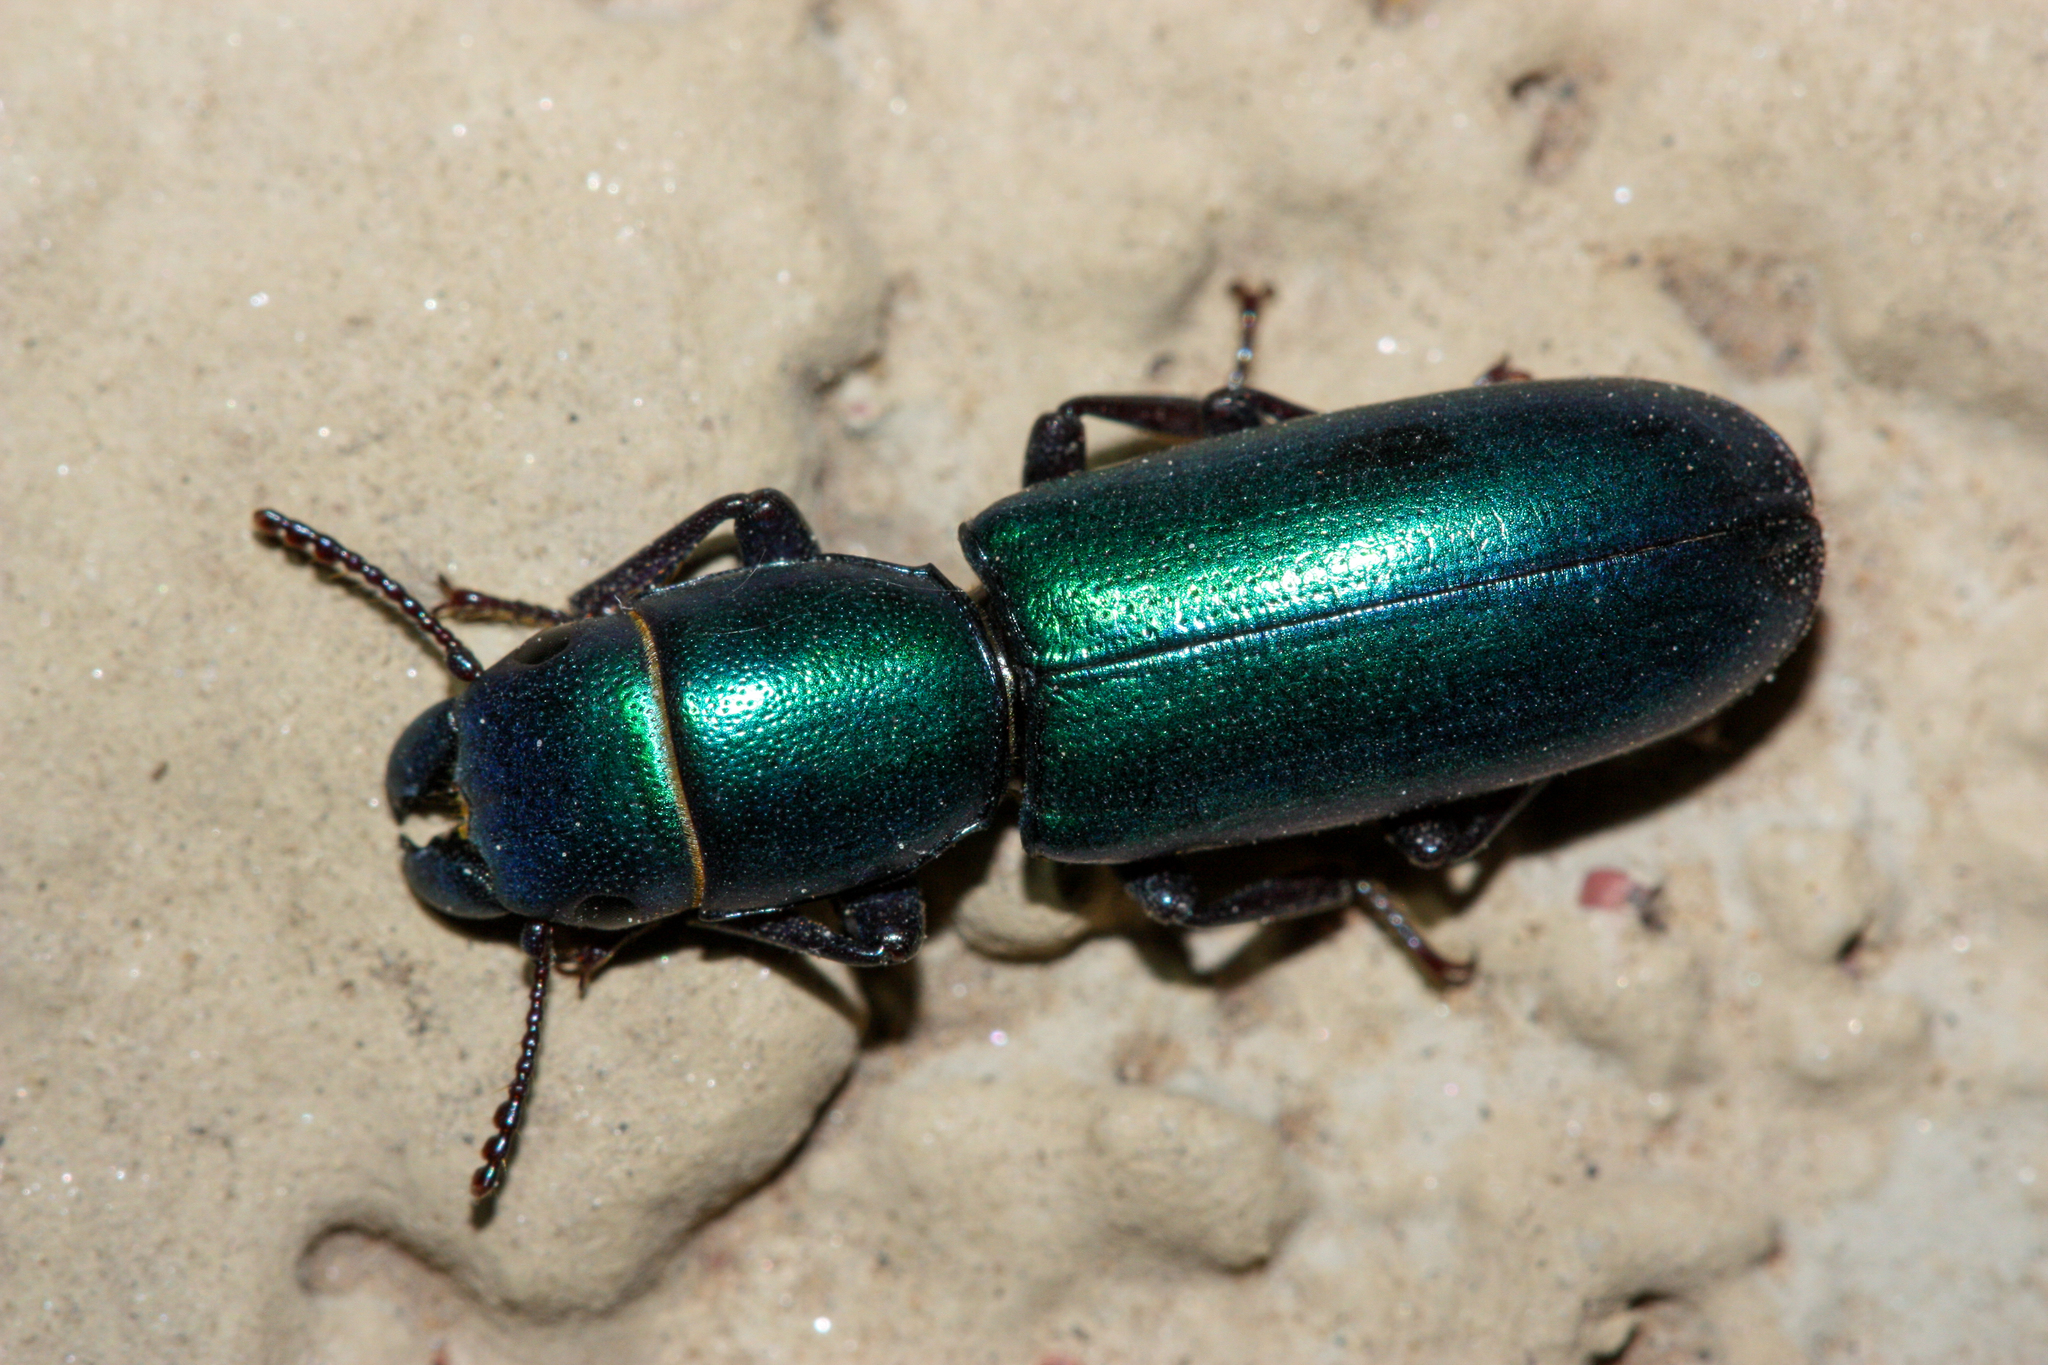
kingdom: Animalia
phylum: Arthropoda
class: Insecta
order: Coleoptera
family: Trogossitidae
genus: Temnoscheila
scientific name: Temnoscheila
